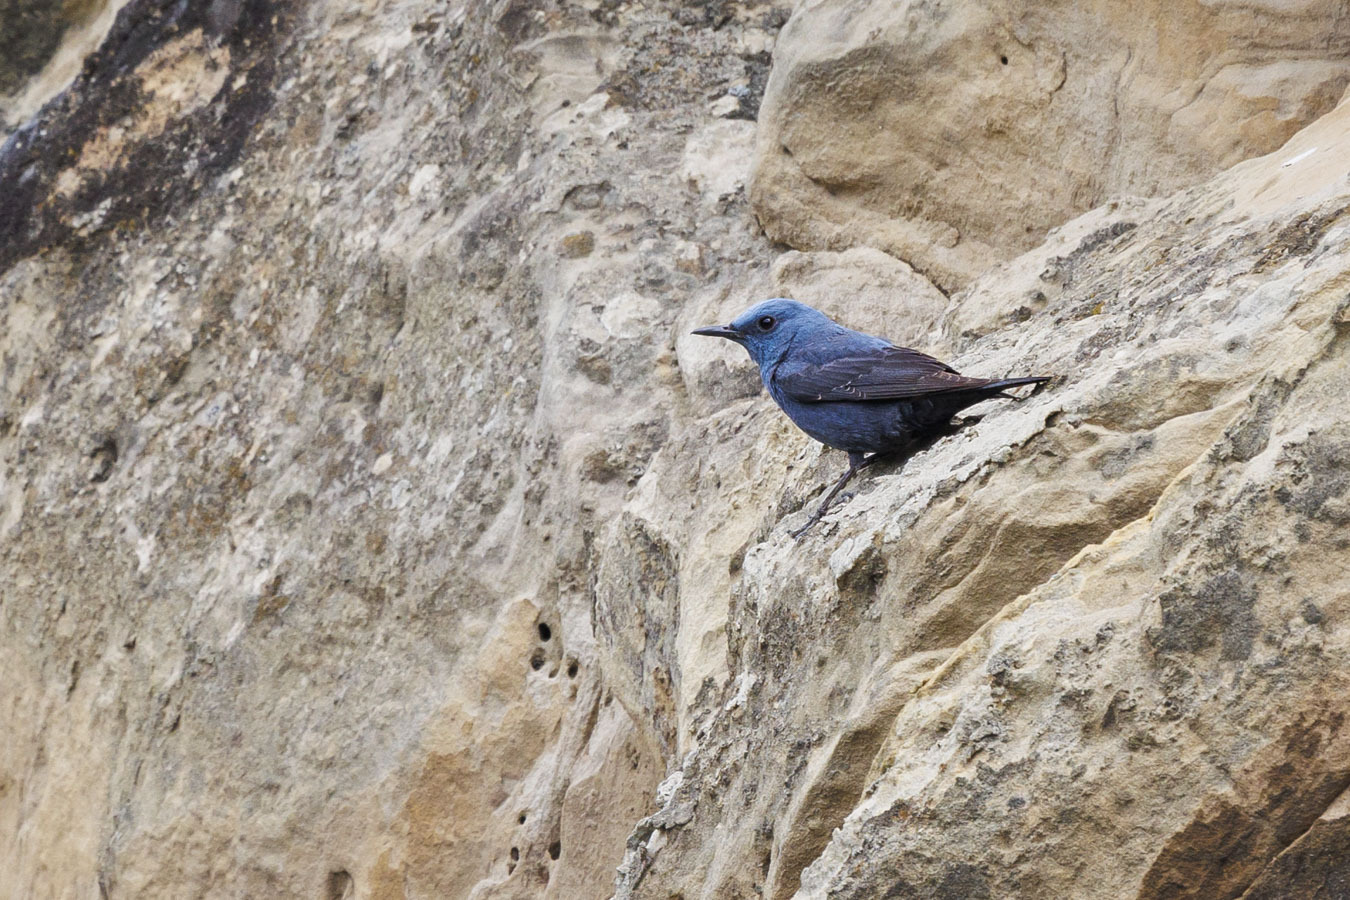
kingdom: Animalia
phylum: Chordata
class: Aves
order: Passeriformes
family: Muscicapidae
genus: Monticola
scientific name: Monticola solitarius
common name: Blue rock thrush
